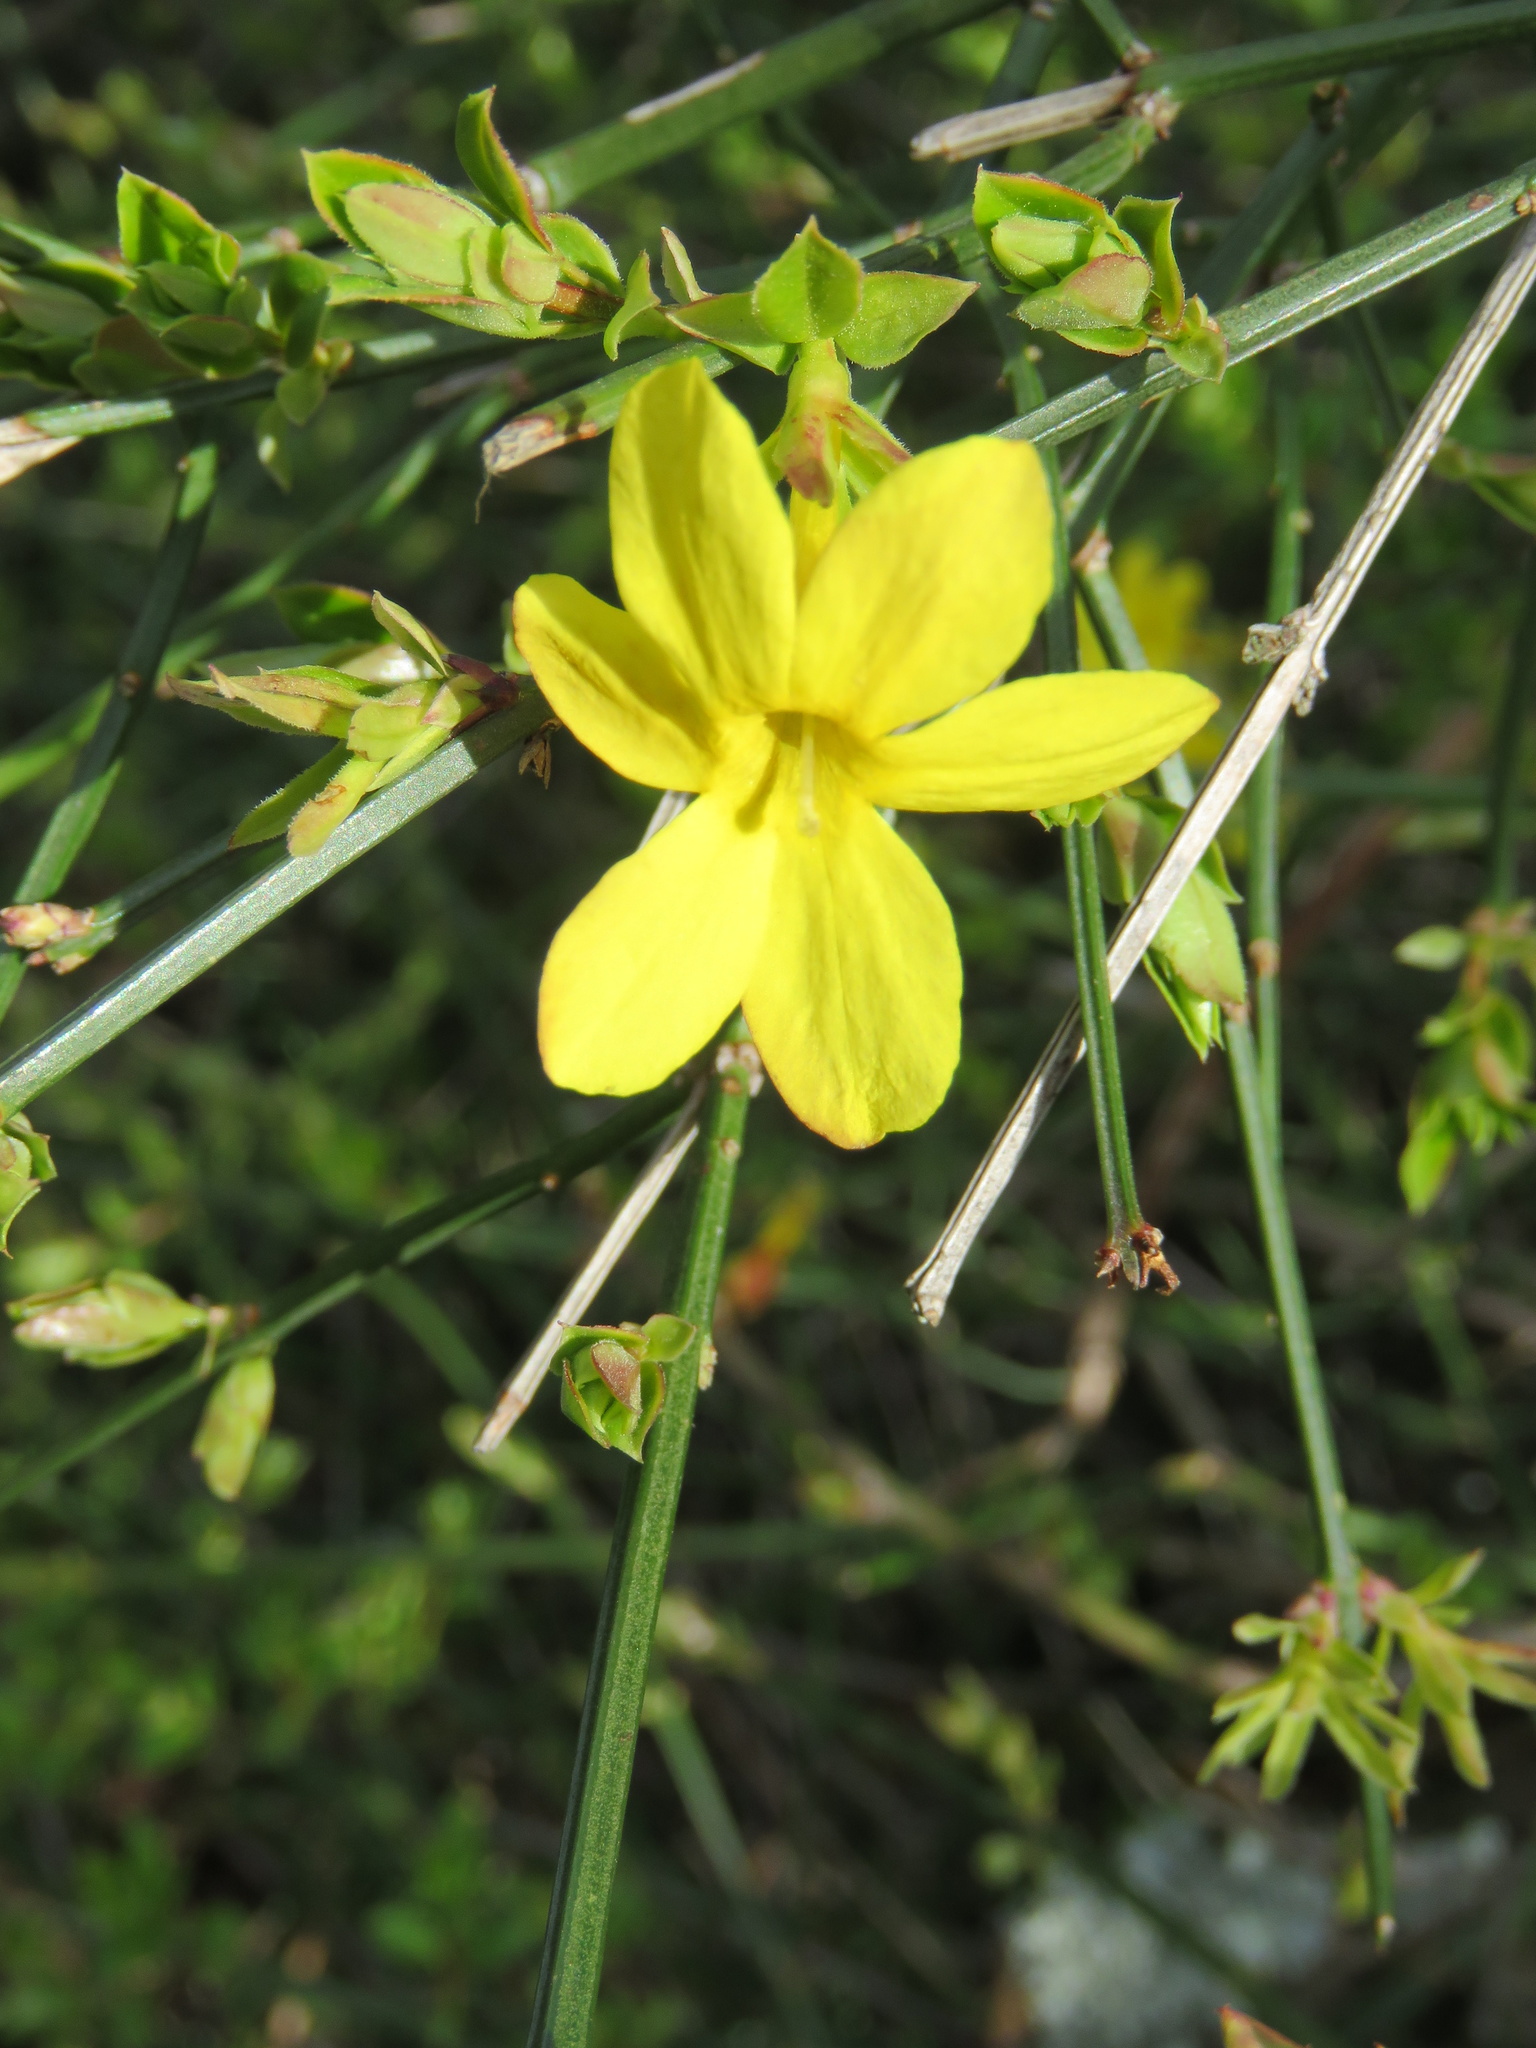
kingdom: Plantae
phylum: Tracheophyta
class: Magnoliopsida
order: Lamiales
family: Oleaceae
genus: Jasminum
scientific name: Jasminum nudiflorum
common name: Winter jasmine
